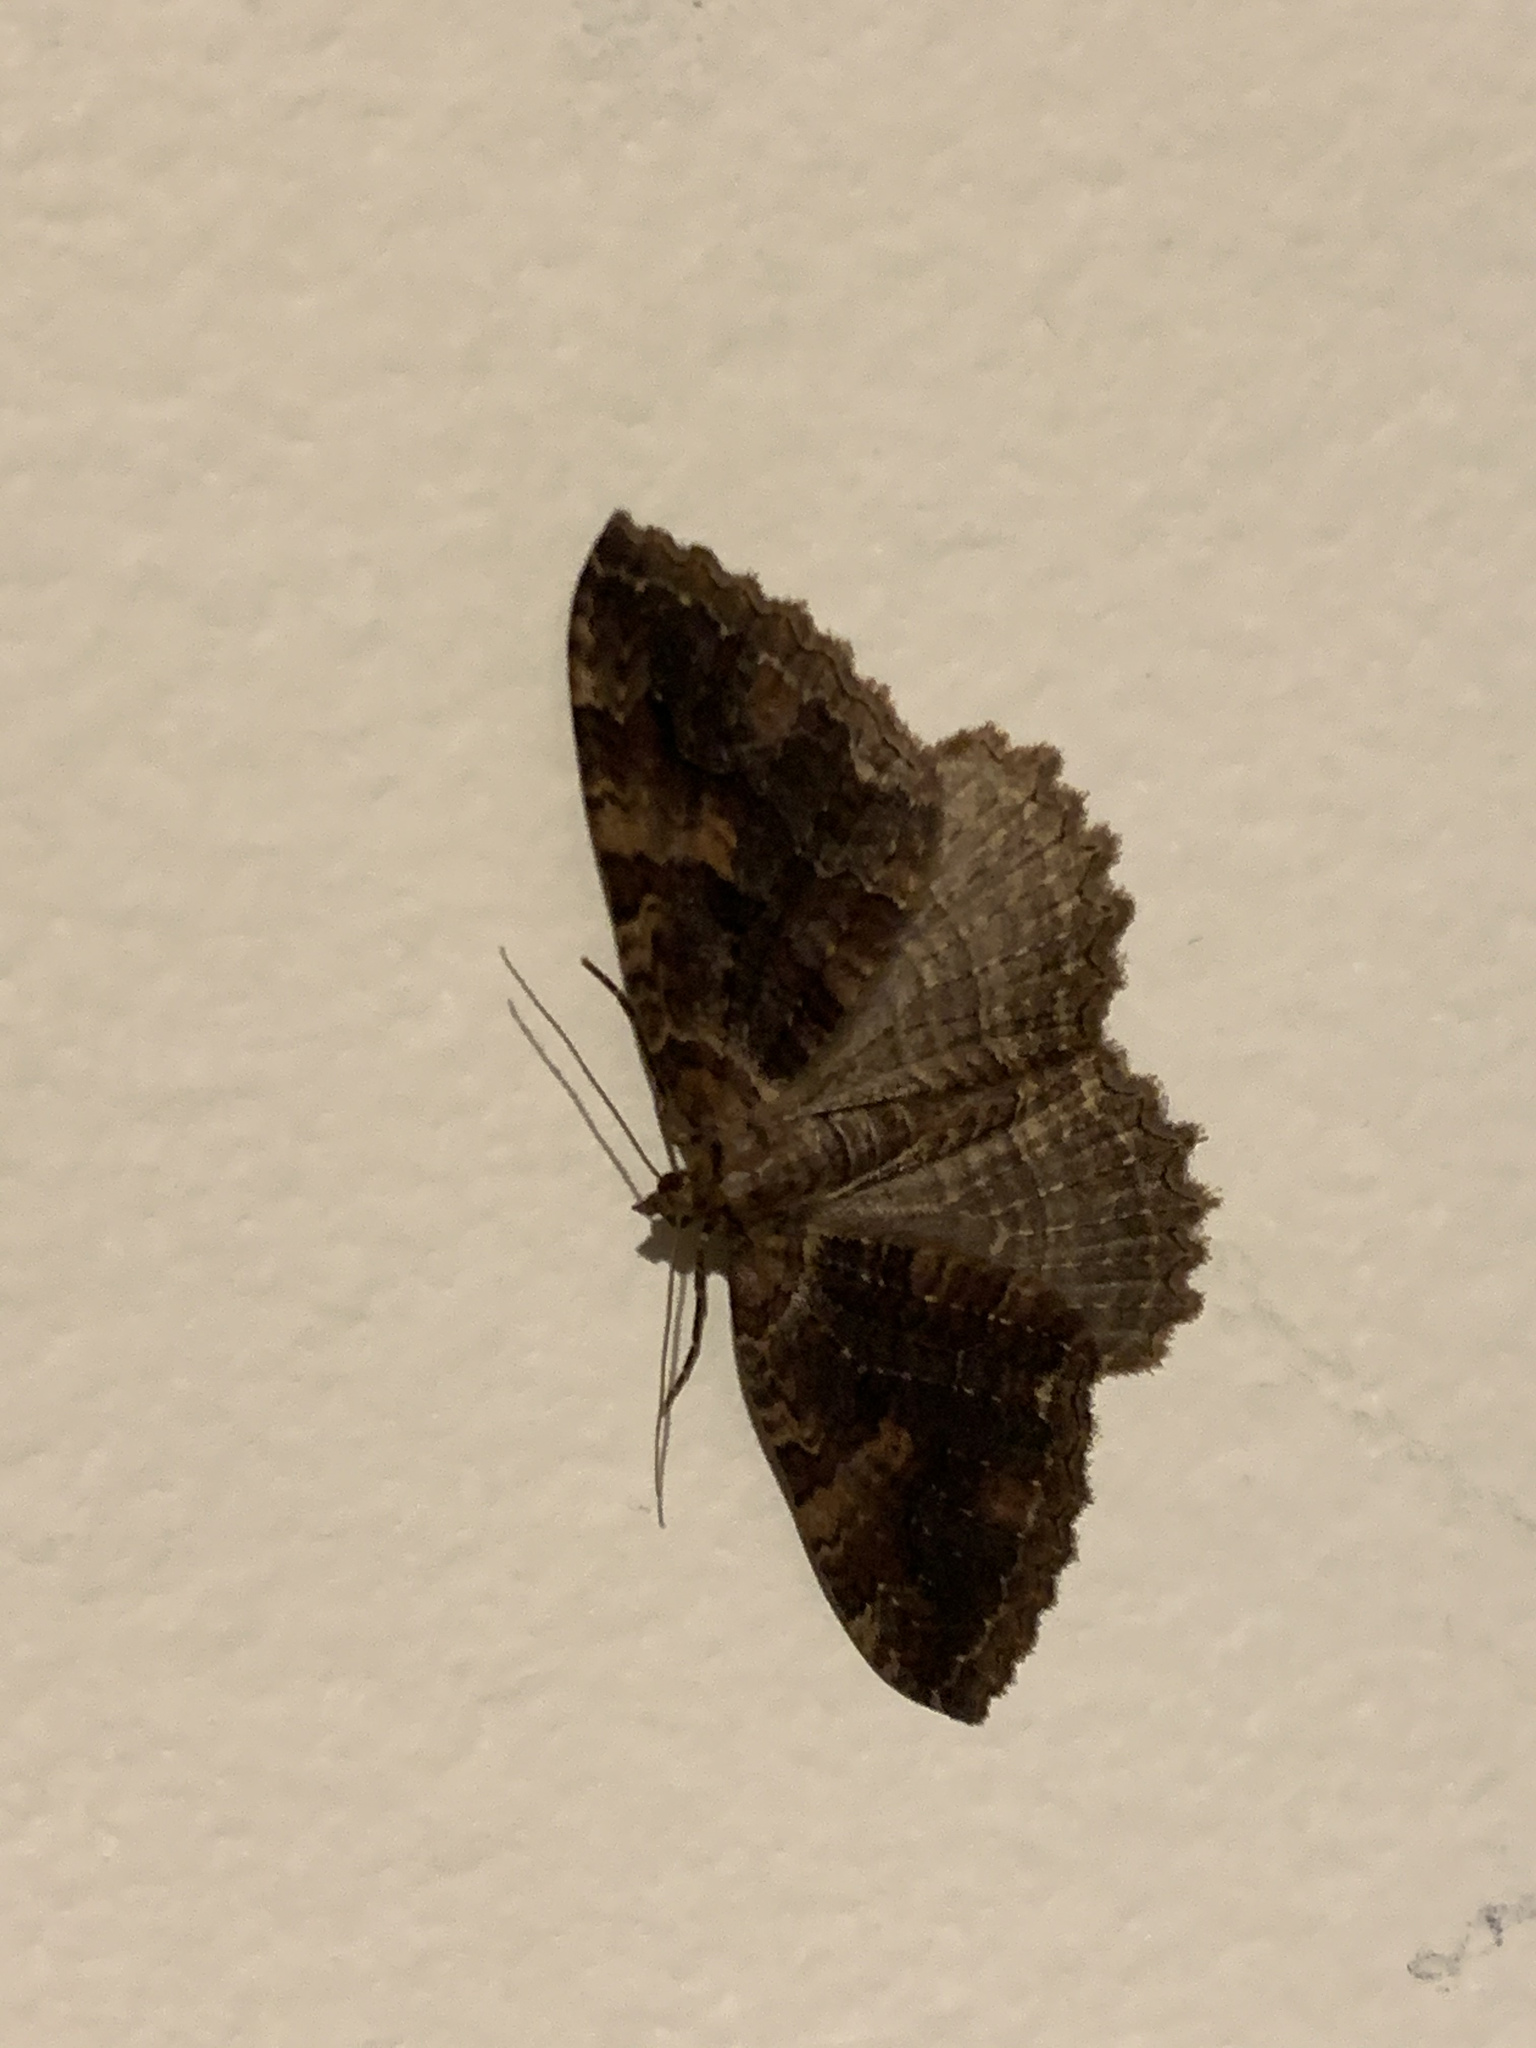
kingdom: Animalia
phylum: Arthropoda
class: Insecta
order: Lepidoptera
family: Geometridae
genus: Triphosa
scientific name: Triphosa haesitata
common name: Tissue moth
